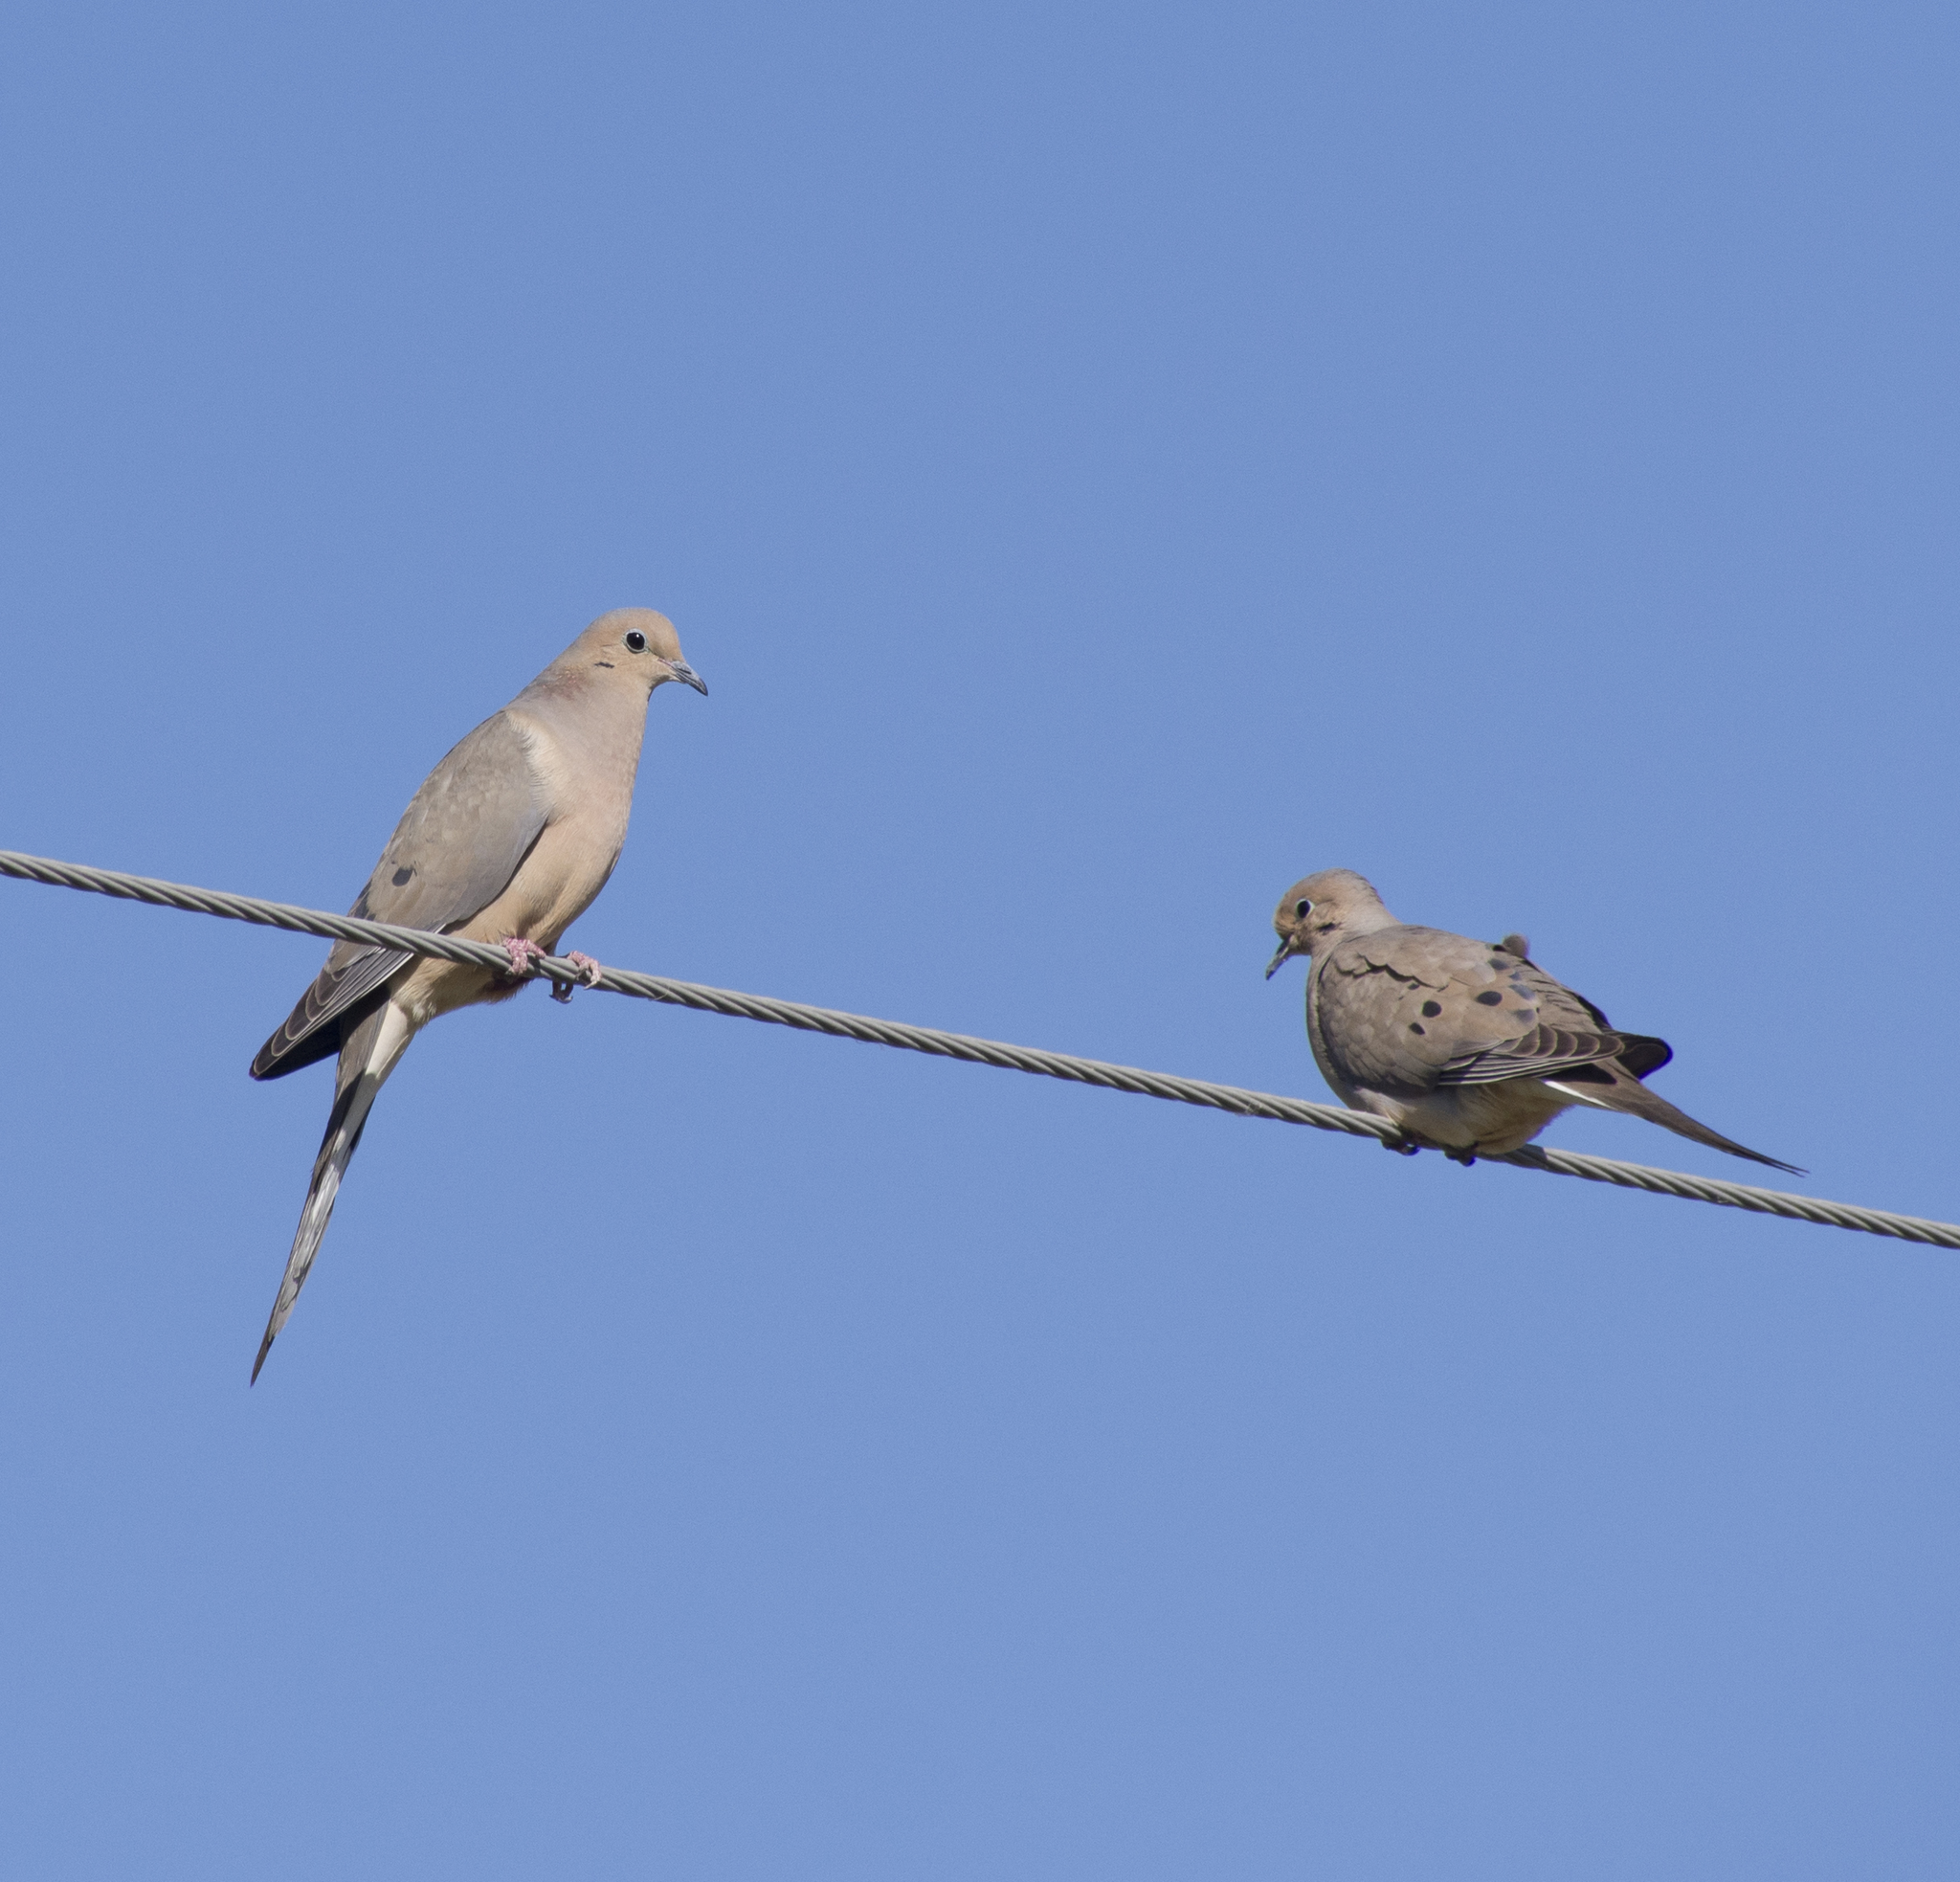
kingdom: Animalia
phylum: Chordata
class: Aves
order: Columbiformes
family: Columbidae
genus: Zenaida
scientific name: Zenaida macroura
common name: Mourning dove
